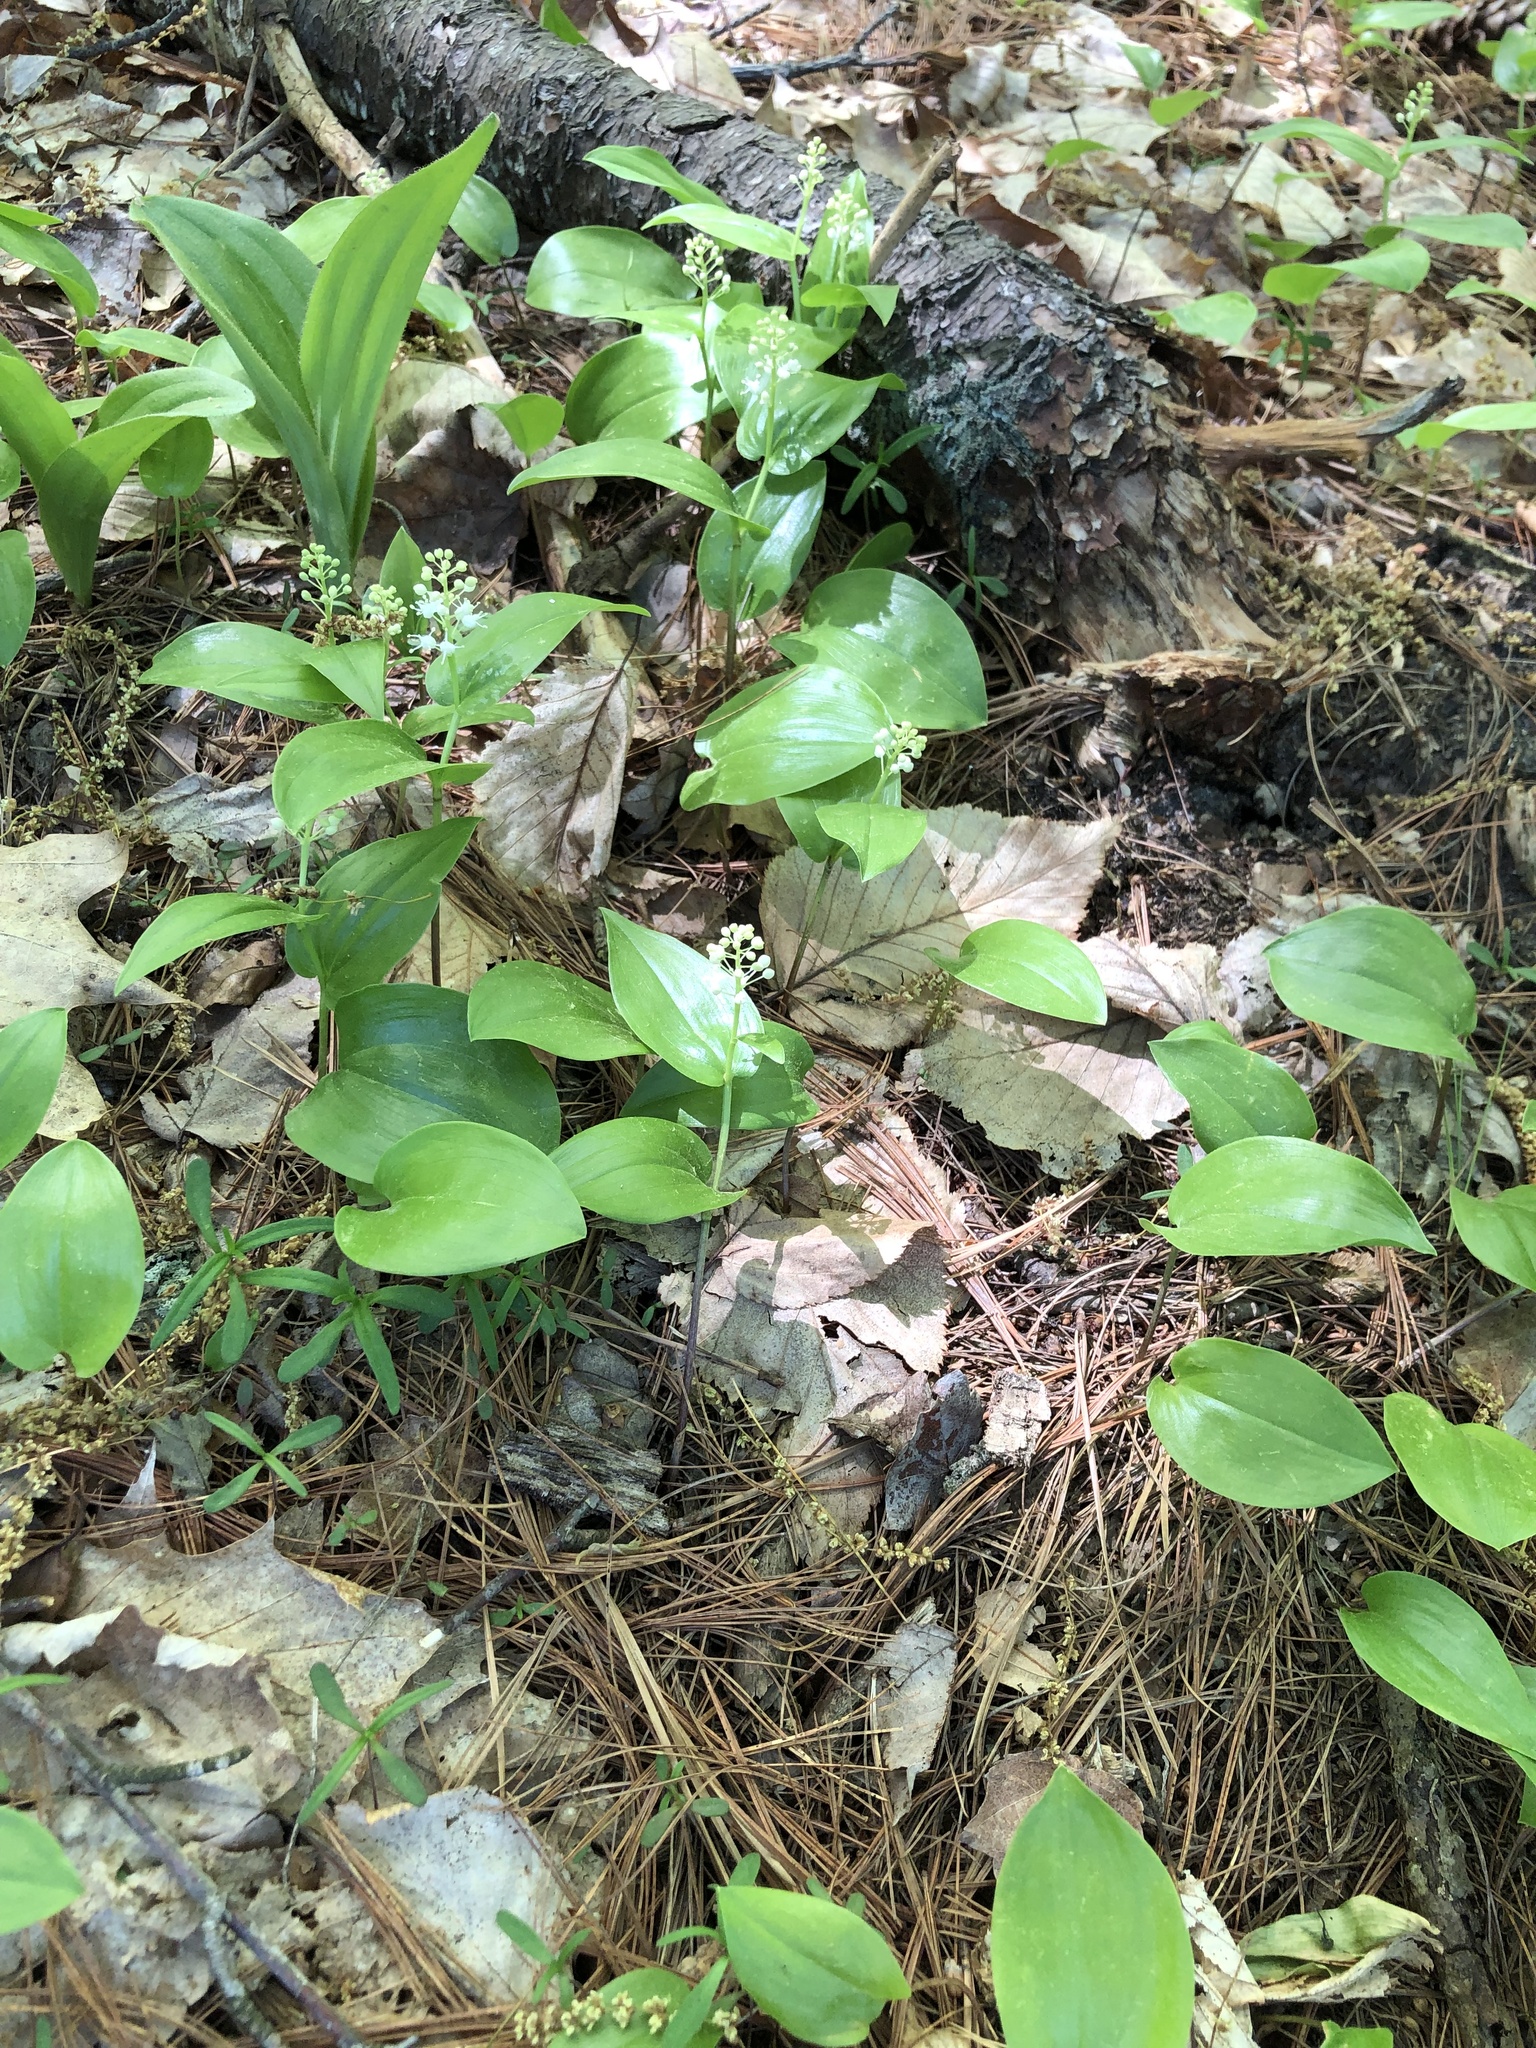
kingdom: Plantae
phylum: Tracheophyta
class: Liliopsida
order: Asparagales
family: Asparagaceae
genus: Maianthemum
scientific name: Maianthemum canadense
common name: False lily-of-the-valley
